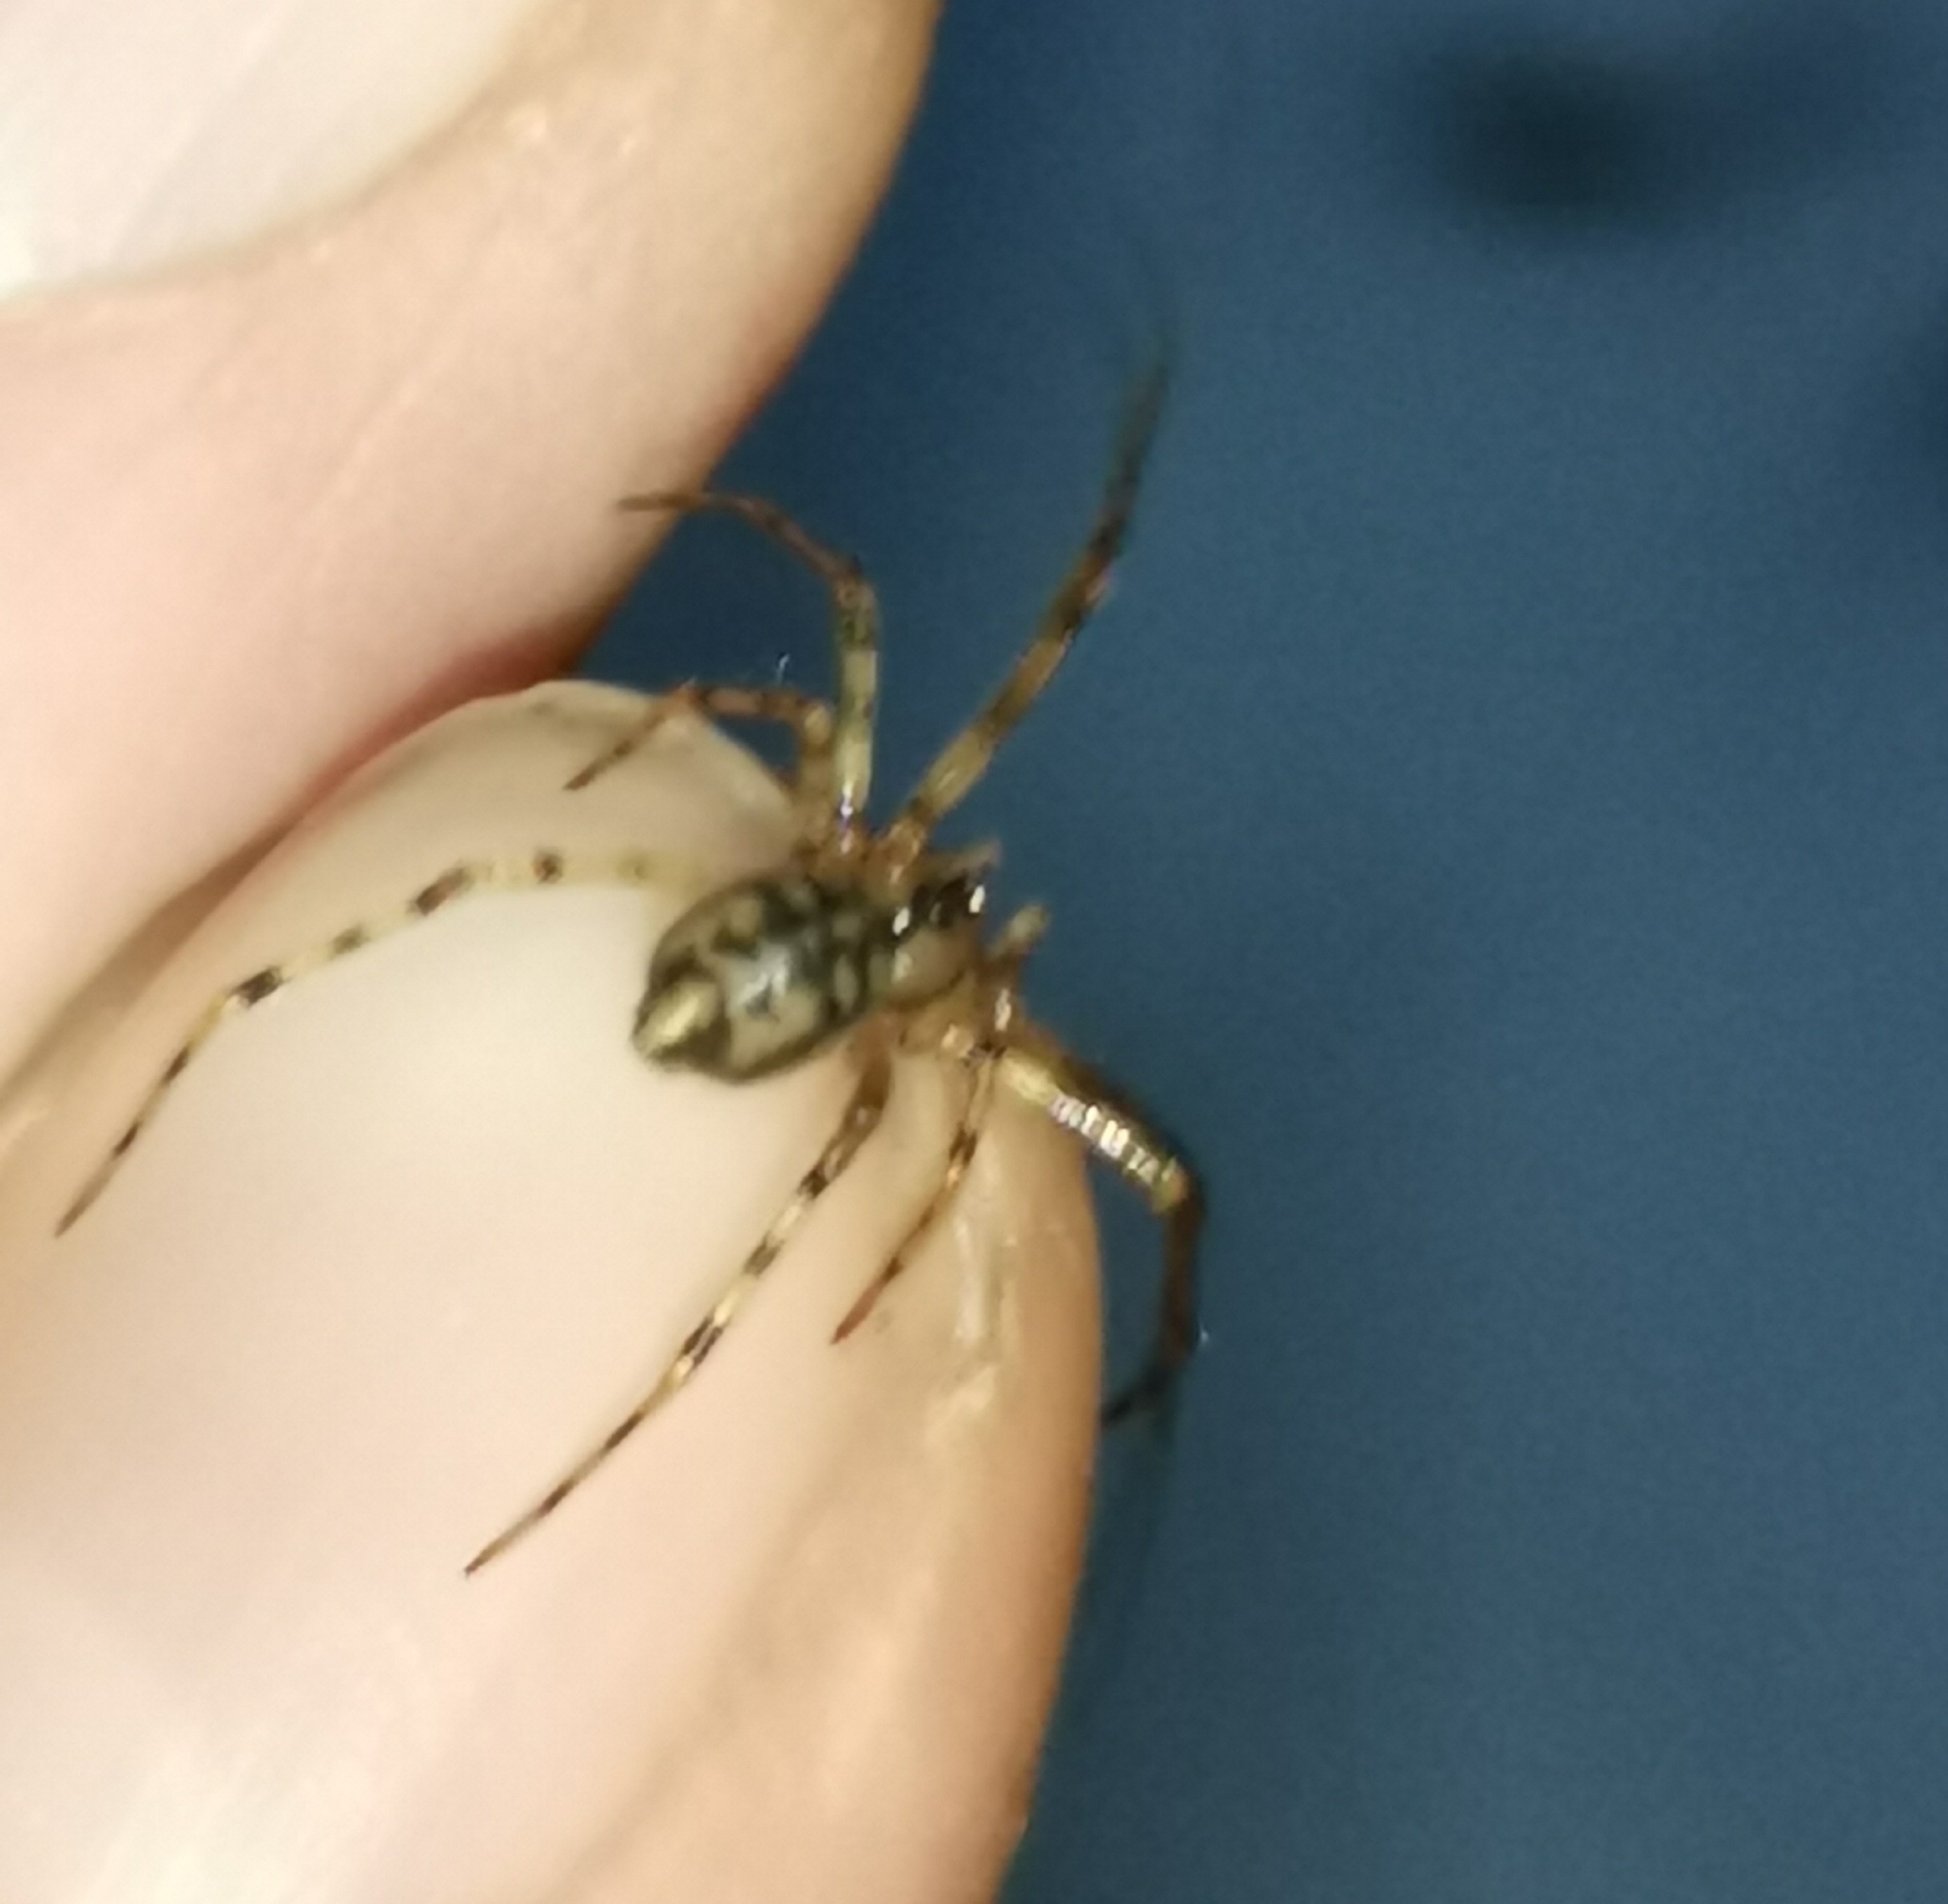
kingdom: Animalia
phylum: Arthropoda
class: Arachnida
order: Araneae
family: Nesticidae
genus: Nesticus
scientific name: Nesticus cellulanus
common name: Comb-footed cellar spider
